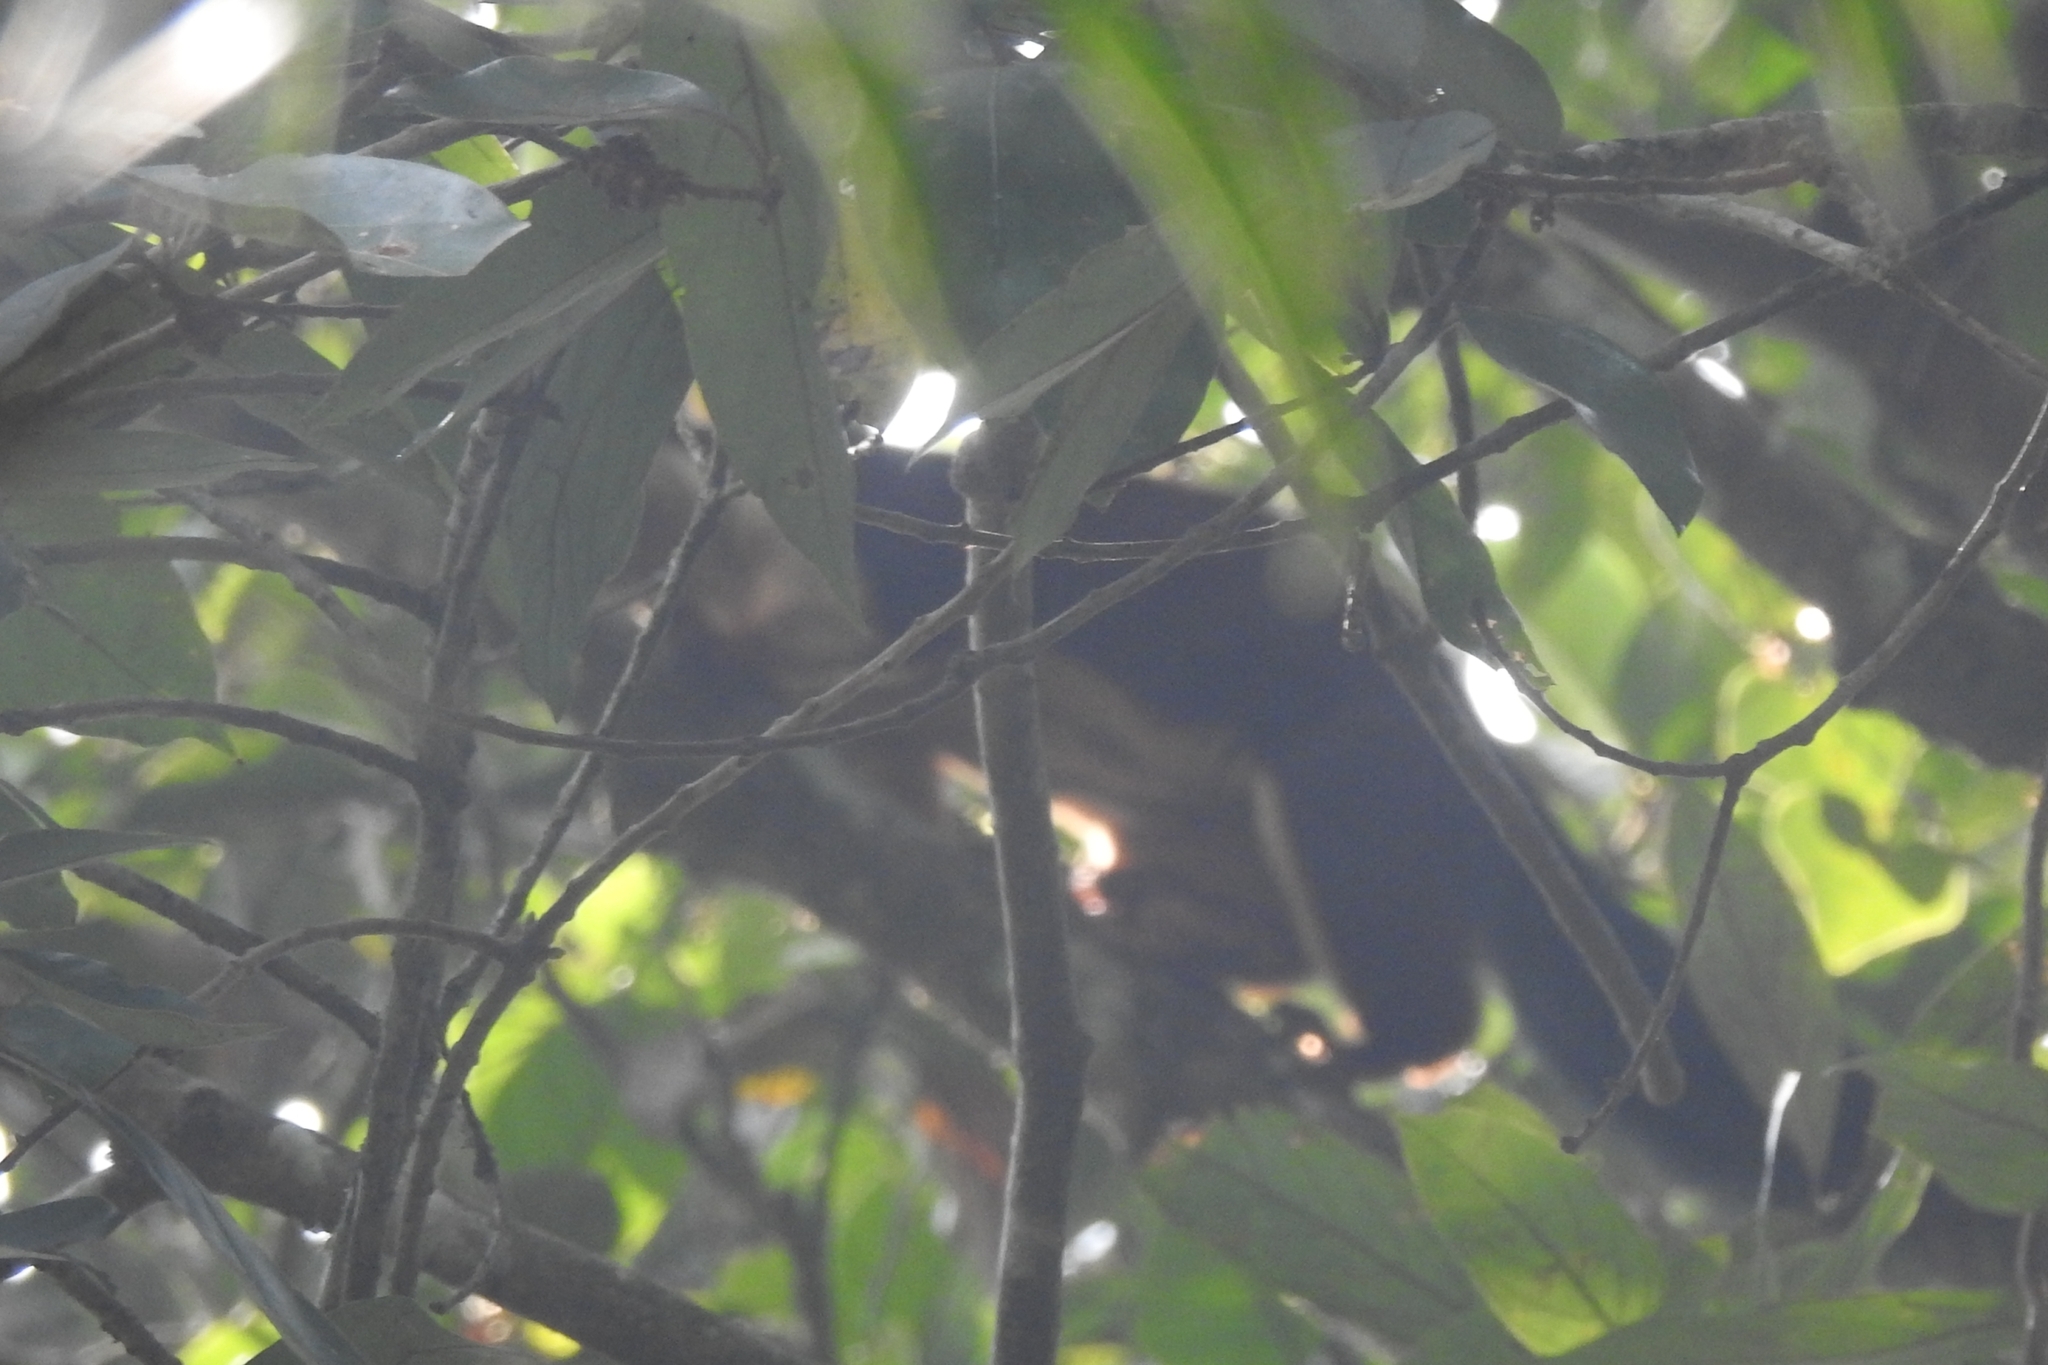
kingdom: Animalia
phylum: Chordata
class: Mammalia
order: Rodentia
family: Sciuridae
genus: Ratufa
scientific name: Ratufa indica
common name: Indian giant squirrel
